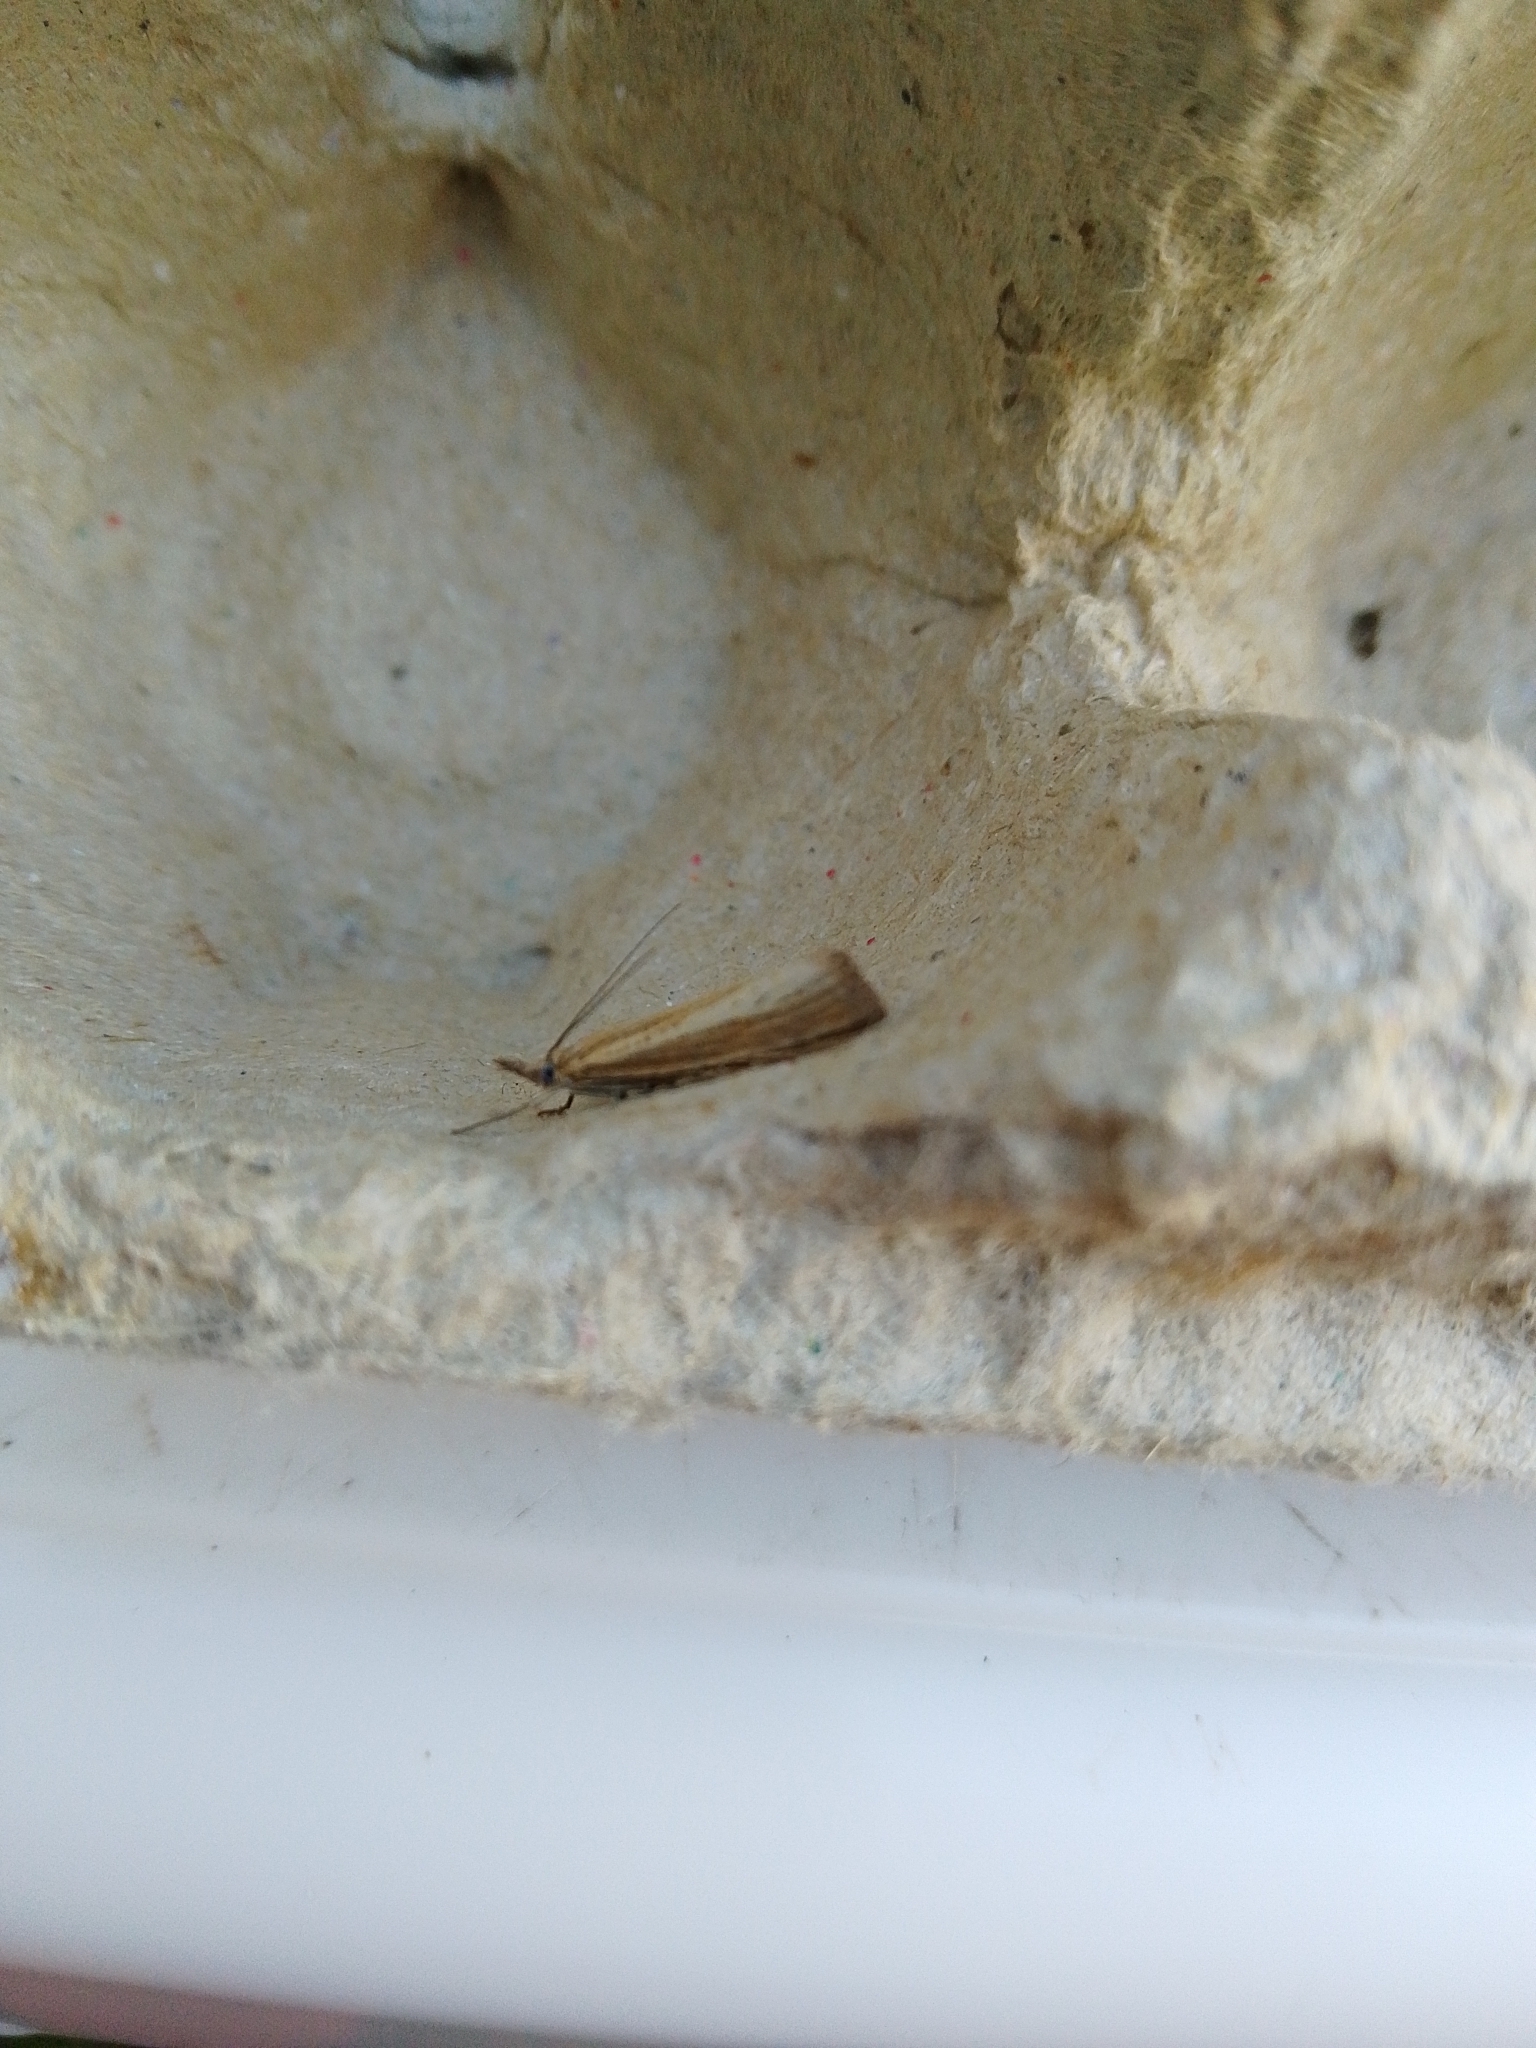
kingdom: Animalia
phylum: Arthropoda
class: Insecta
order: Lepidoptera
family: Crambidae
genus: Agriphila
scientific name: Agriphila straminella
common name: Straw grass-veneer
